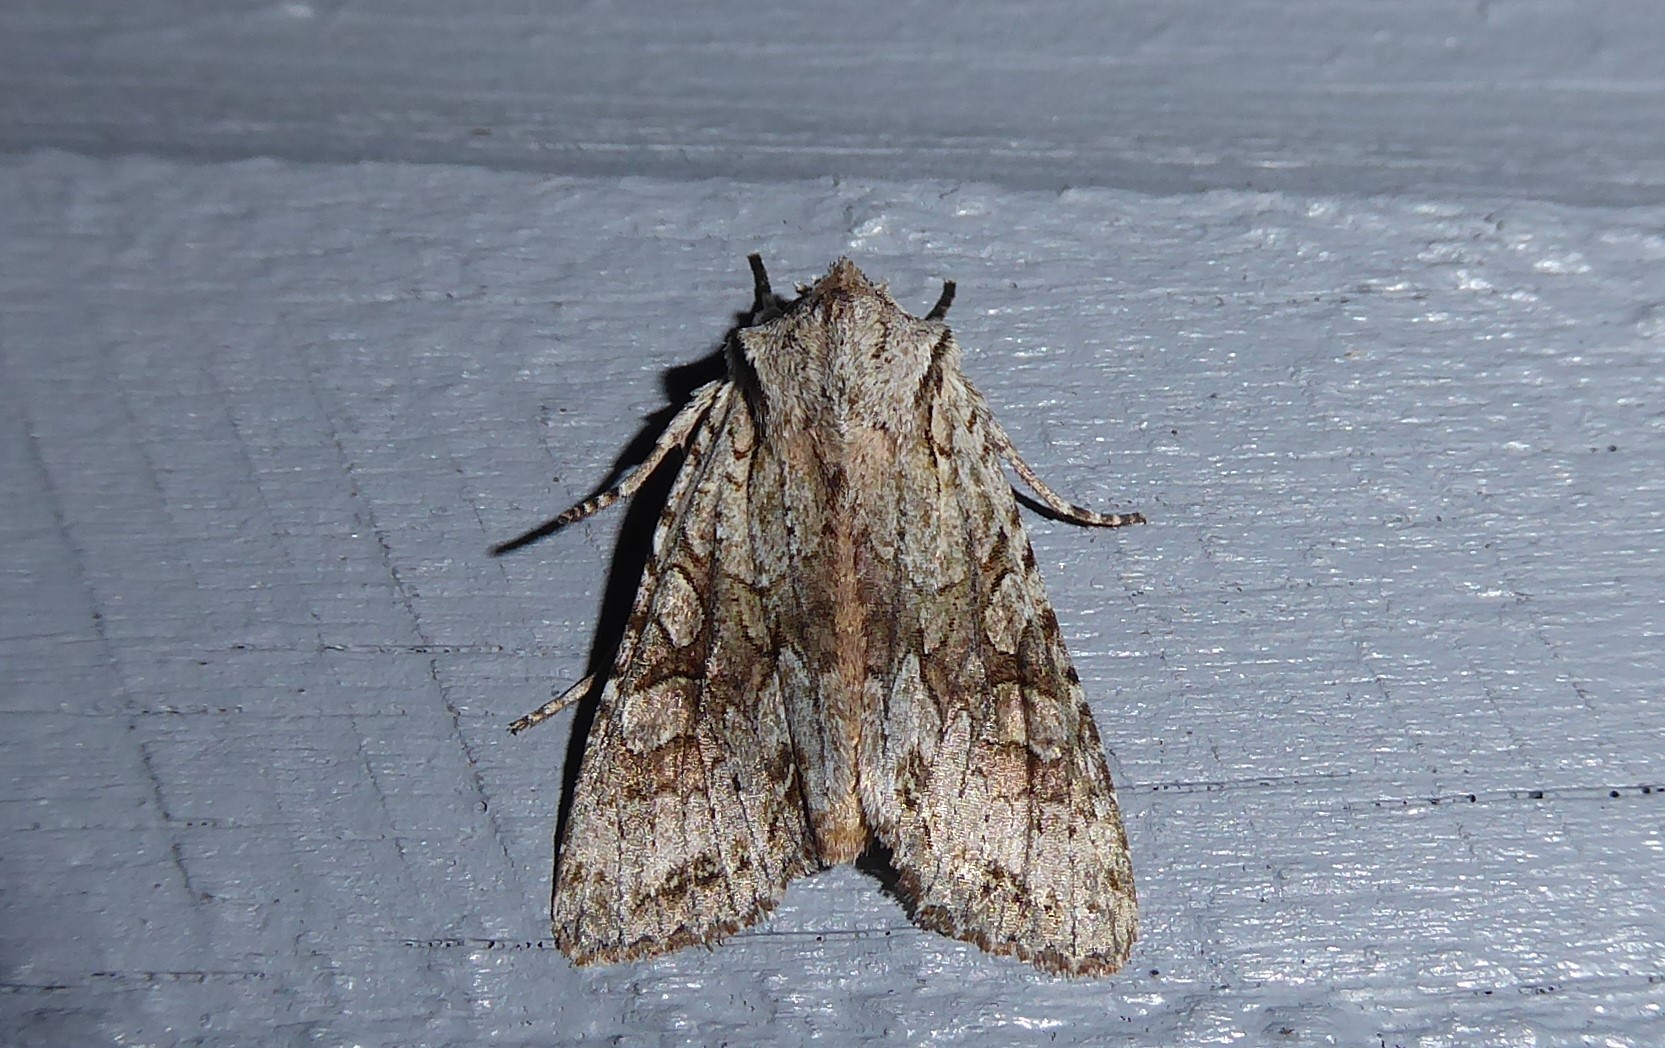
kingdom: Animalia
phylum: Arthropoda
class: Insecta
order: Lepidoptera
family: Noctuidae
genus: Ichneutica
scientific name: Ichneutica mutans
